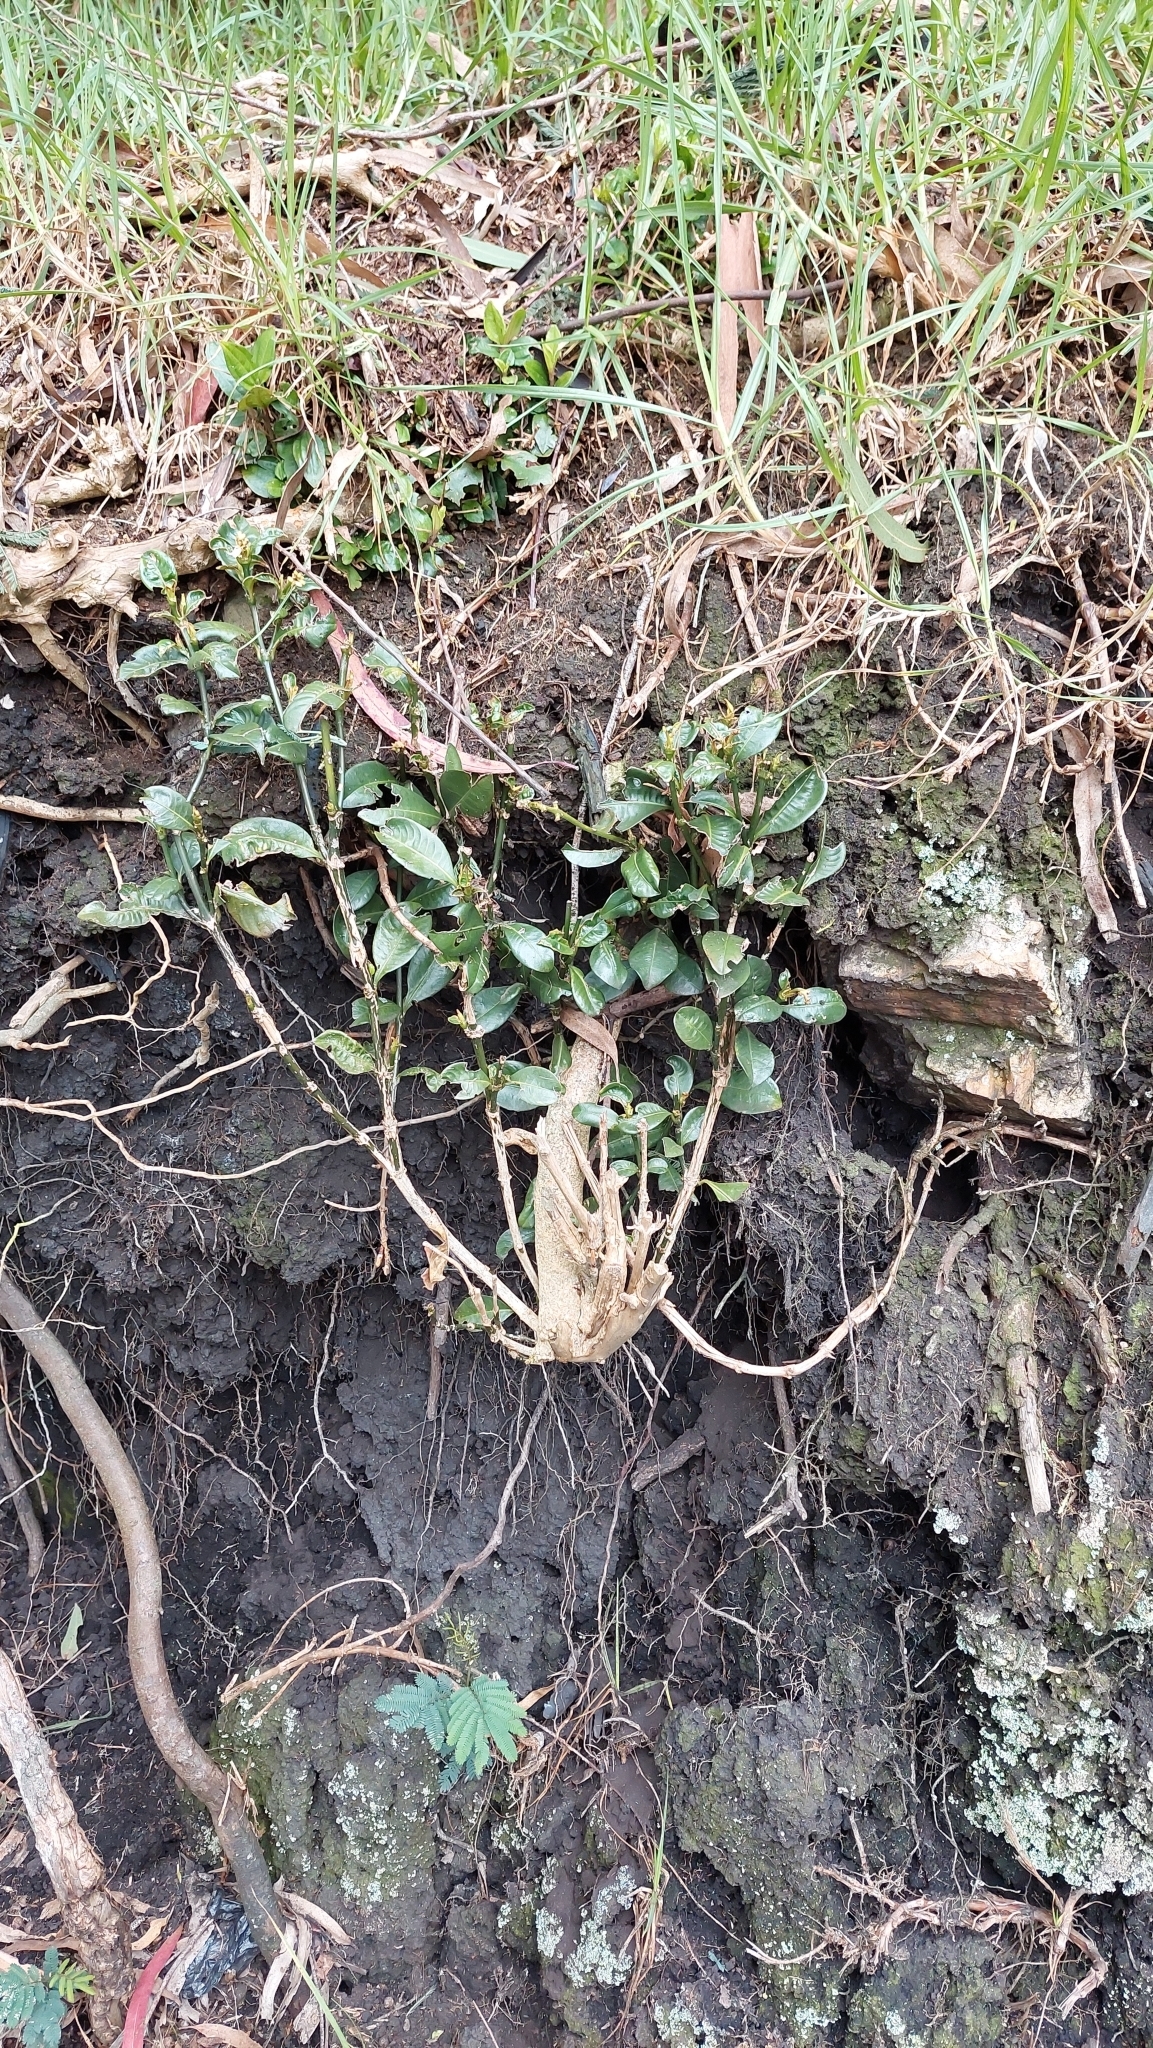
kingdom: Plantae
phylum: Tracheophyta
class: Magnoliopsida
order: Gentianales
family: Rubiaceae
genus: Palicourea
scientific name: Palicourea boqueronensis
